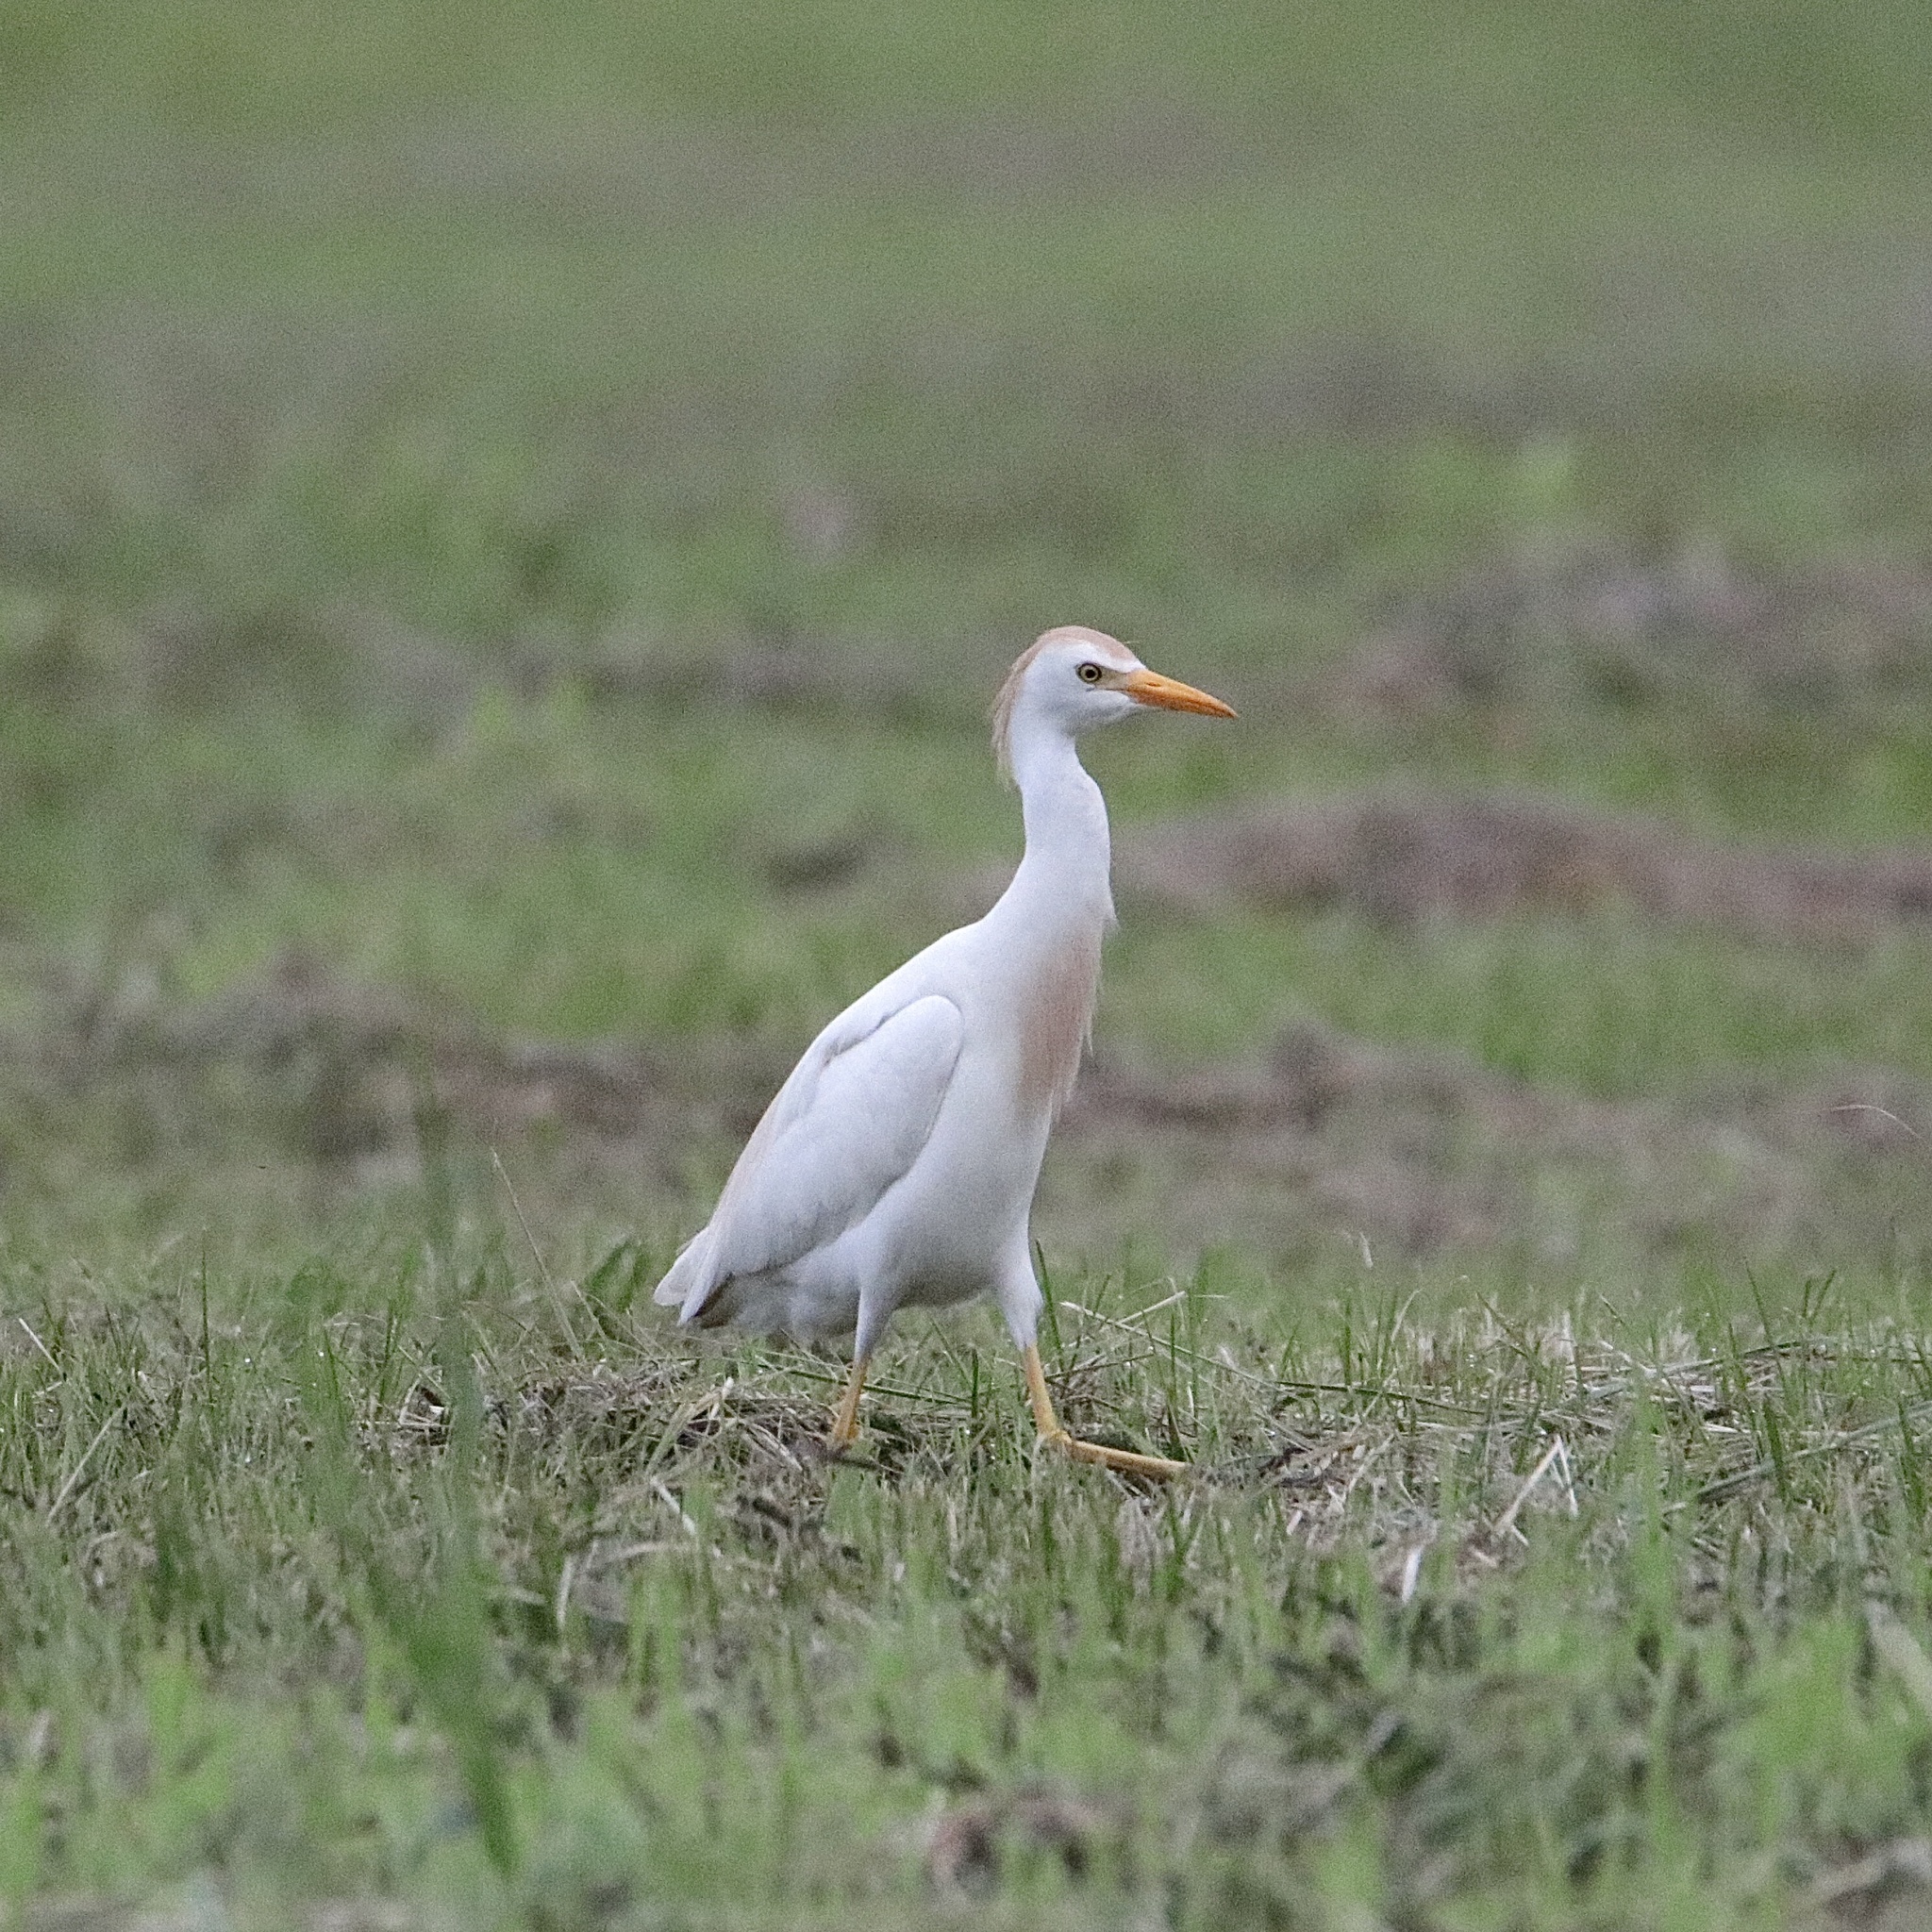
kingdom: Animalia
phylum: Chordata
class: Aves
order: Pelecaniformes
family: Ardeidae
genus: Bubulcus
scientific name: Bubulcus ibis
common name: Cattle egret
